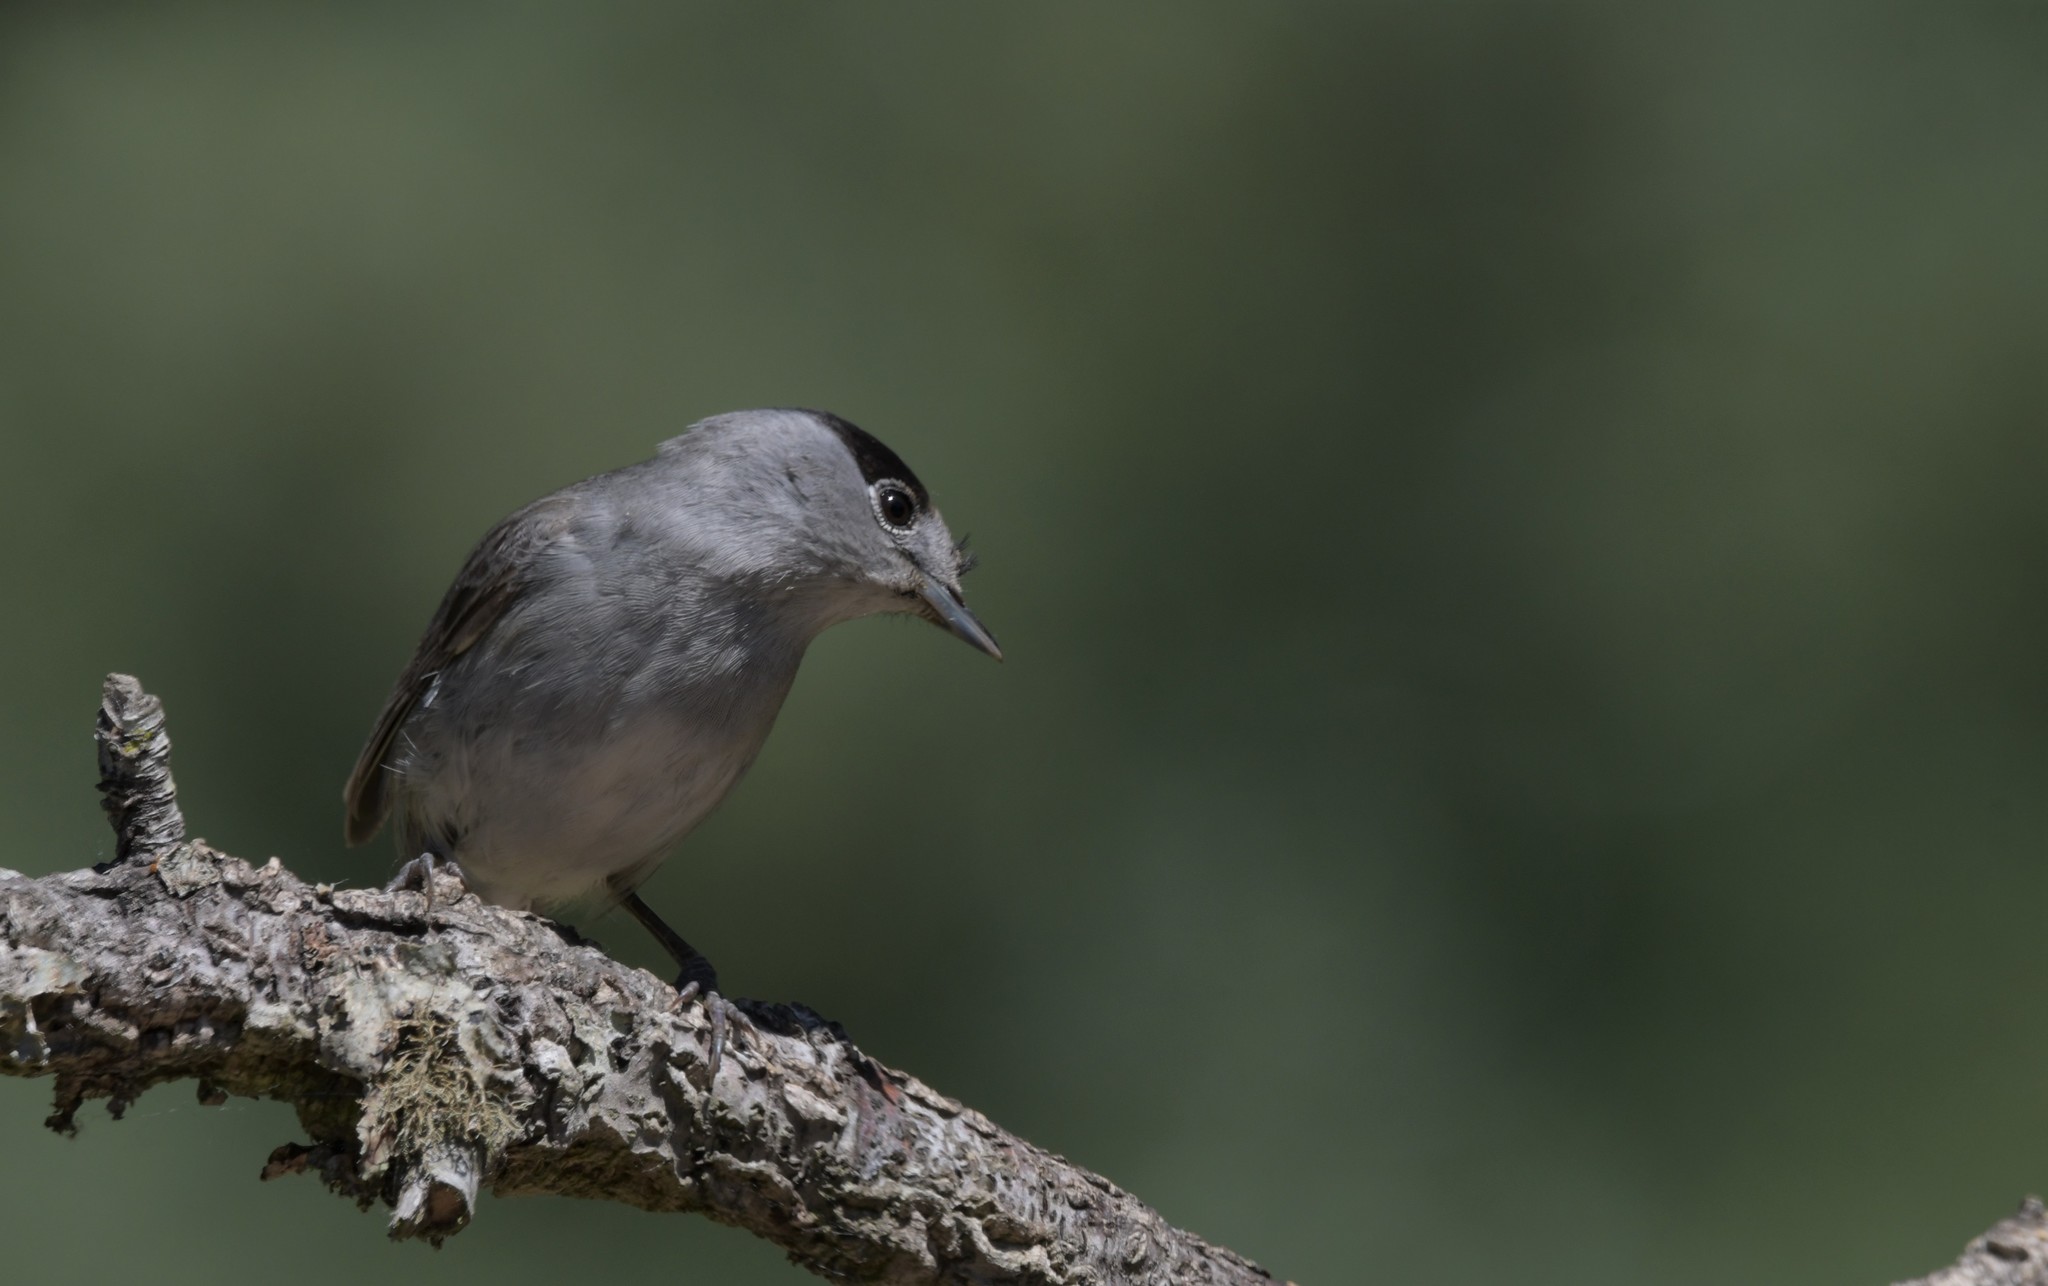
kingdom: Animalia
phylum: Chordata
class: Aves
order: Passeriformes
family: Sylviidae
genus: Sylvia
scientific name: Sylvia atricapilla
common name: Eurasian blackcap
